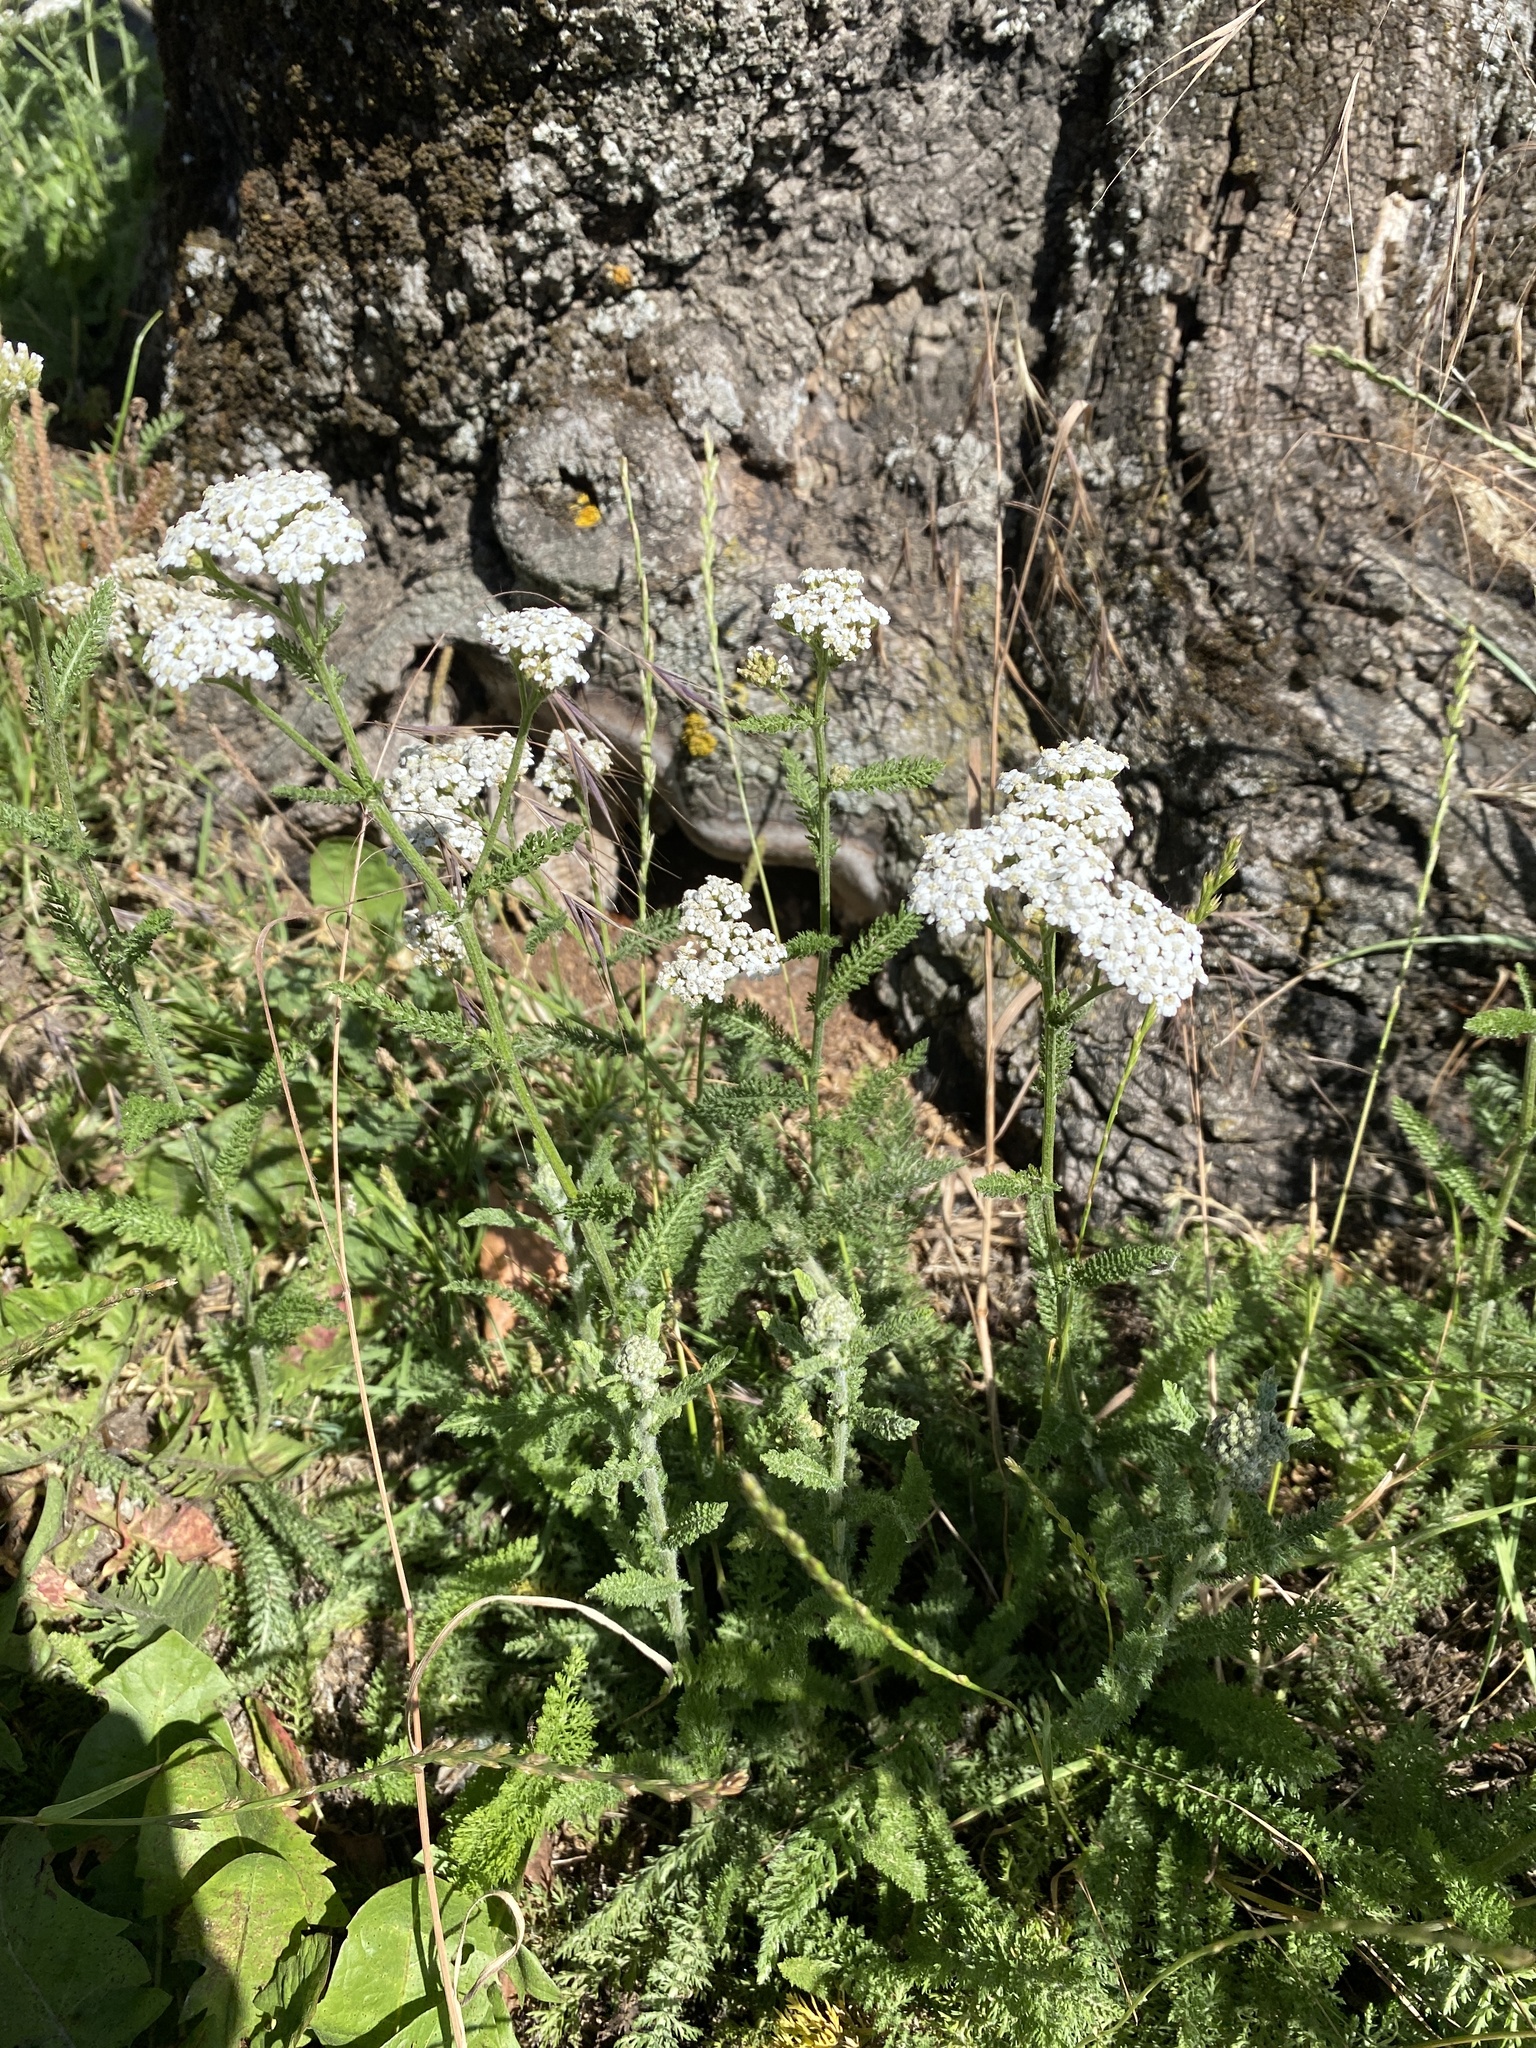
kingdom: Plantae
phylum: Tracheophyta
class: Magnoliopsida
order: Asterales
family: Asteraceae
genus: Achillea
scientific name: Achillea millefolium
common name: Yarrow
